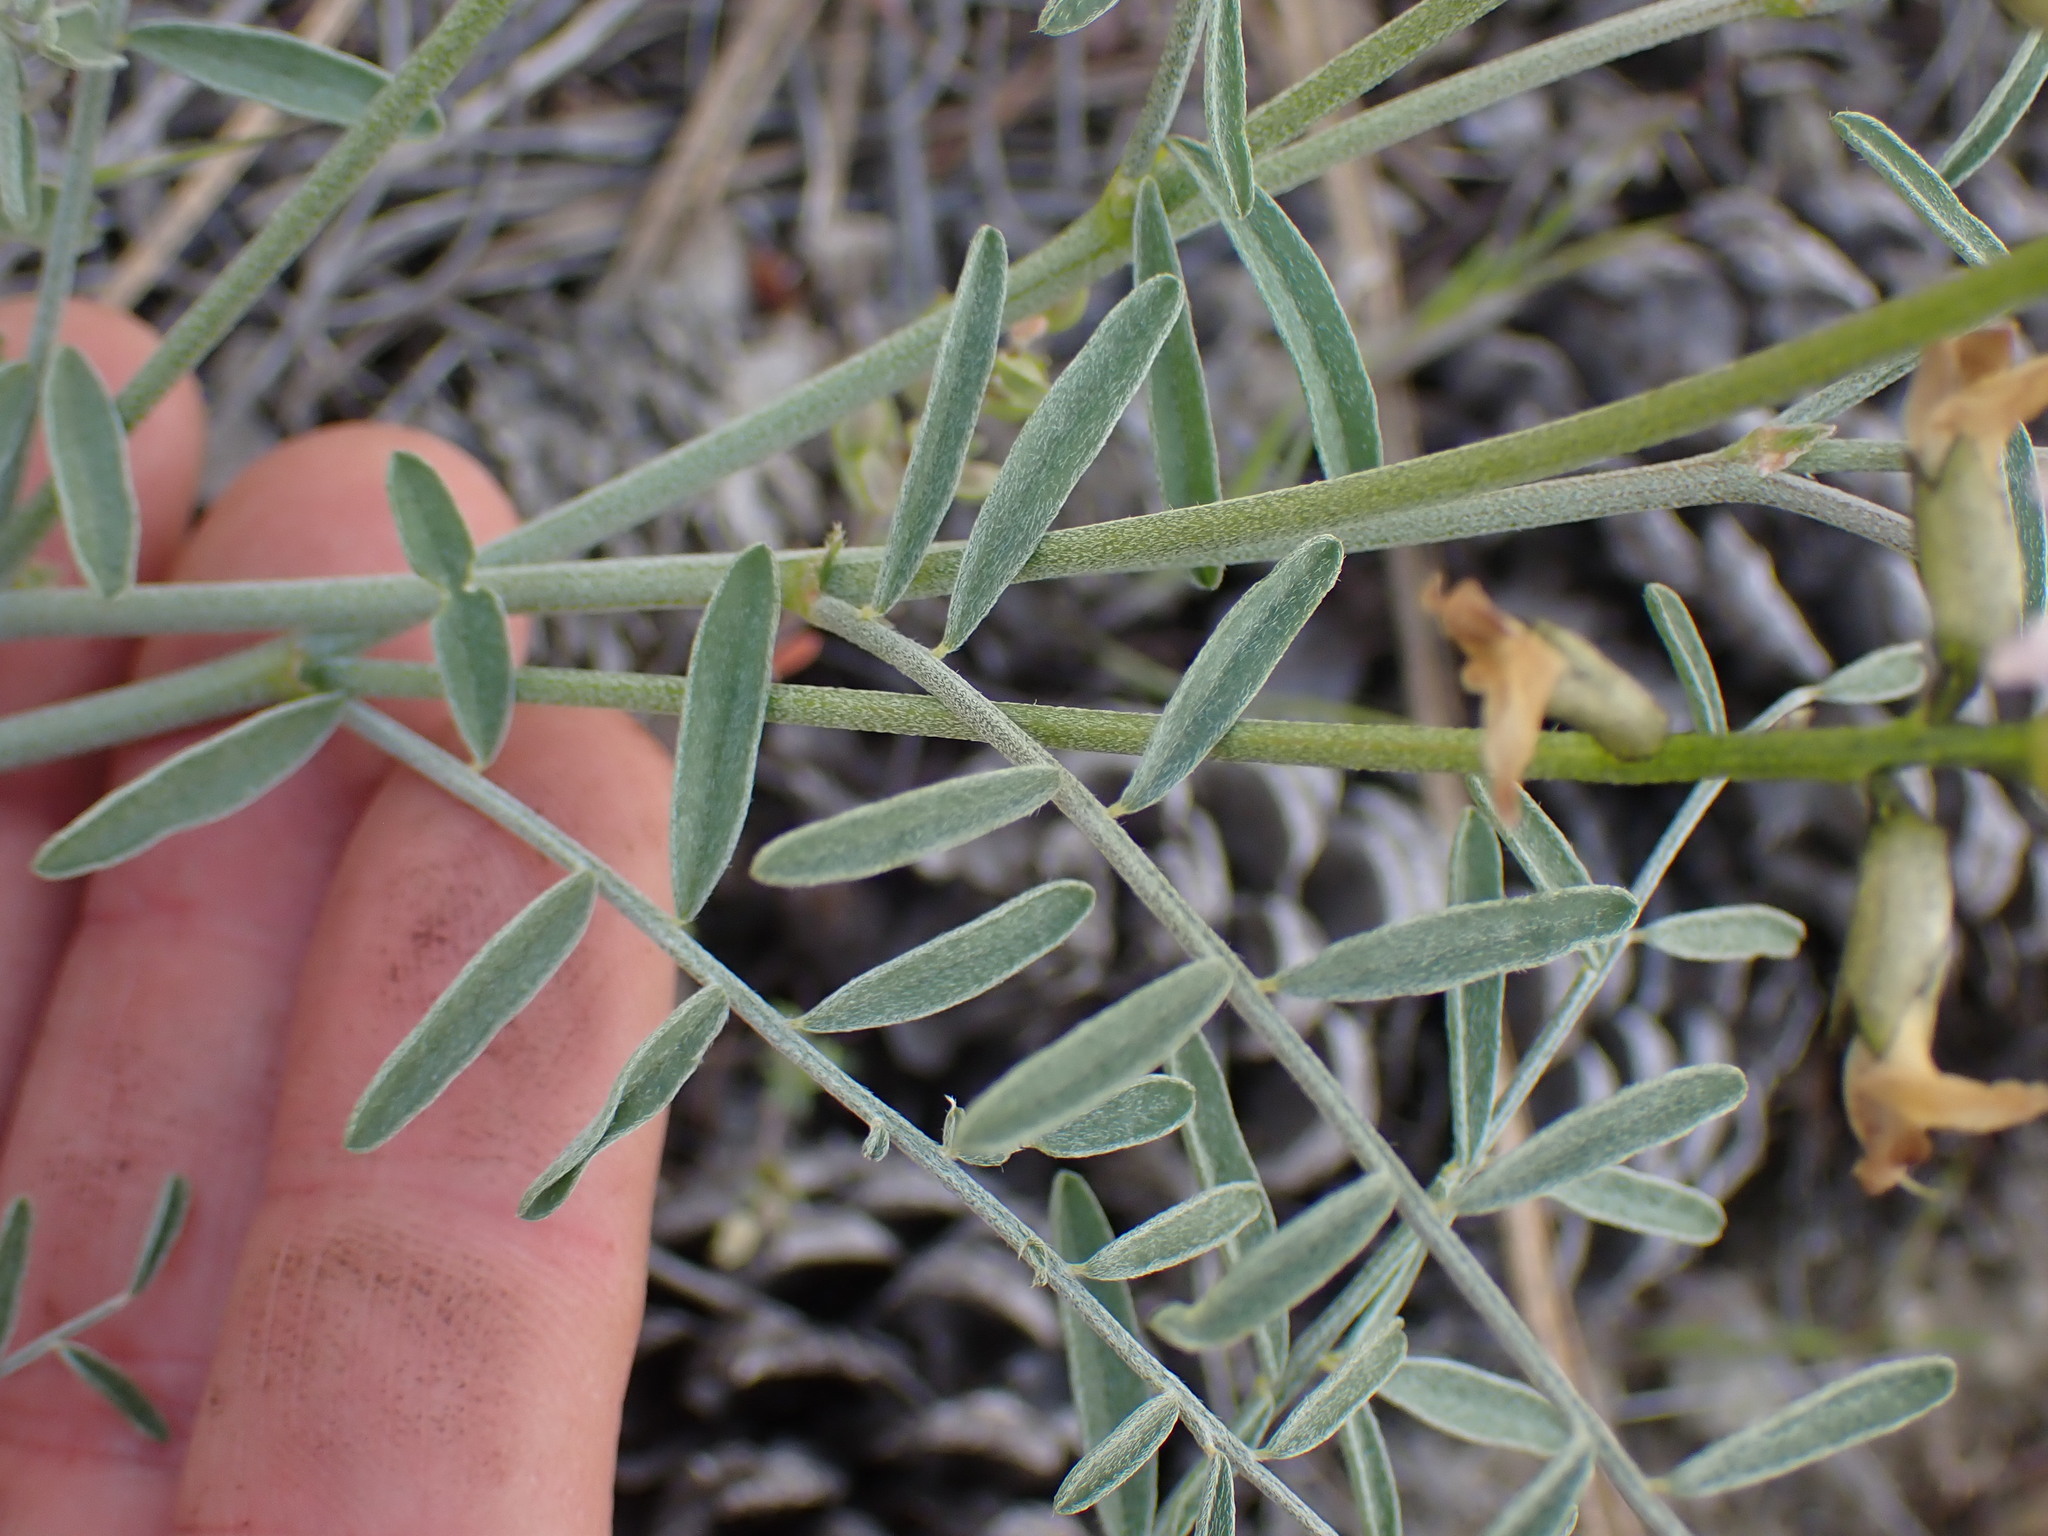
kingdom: Plantae
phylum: Tracheophyta
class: Magnoliopsida
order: Fabales
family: Fabaceae
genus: Astragalus
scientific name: Astragalus sclerocarpus
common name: The dalles milk-vetch
